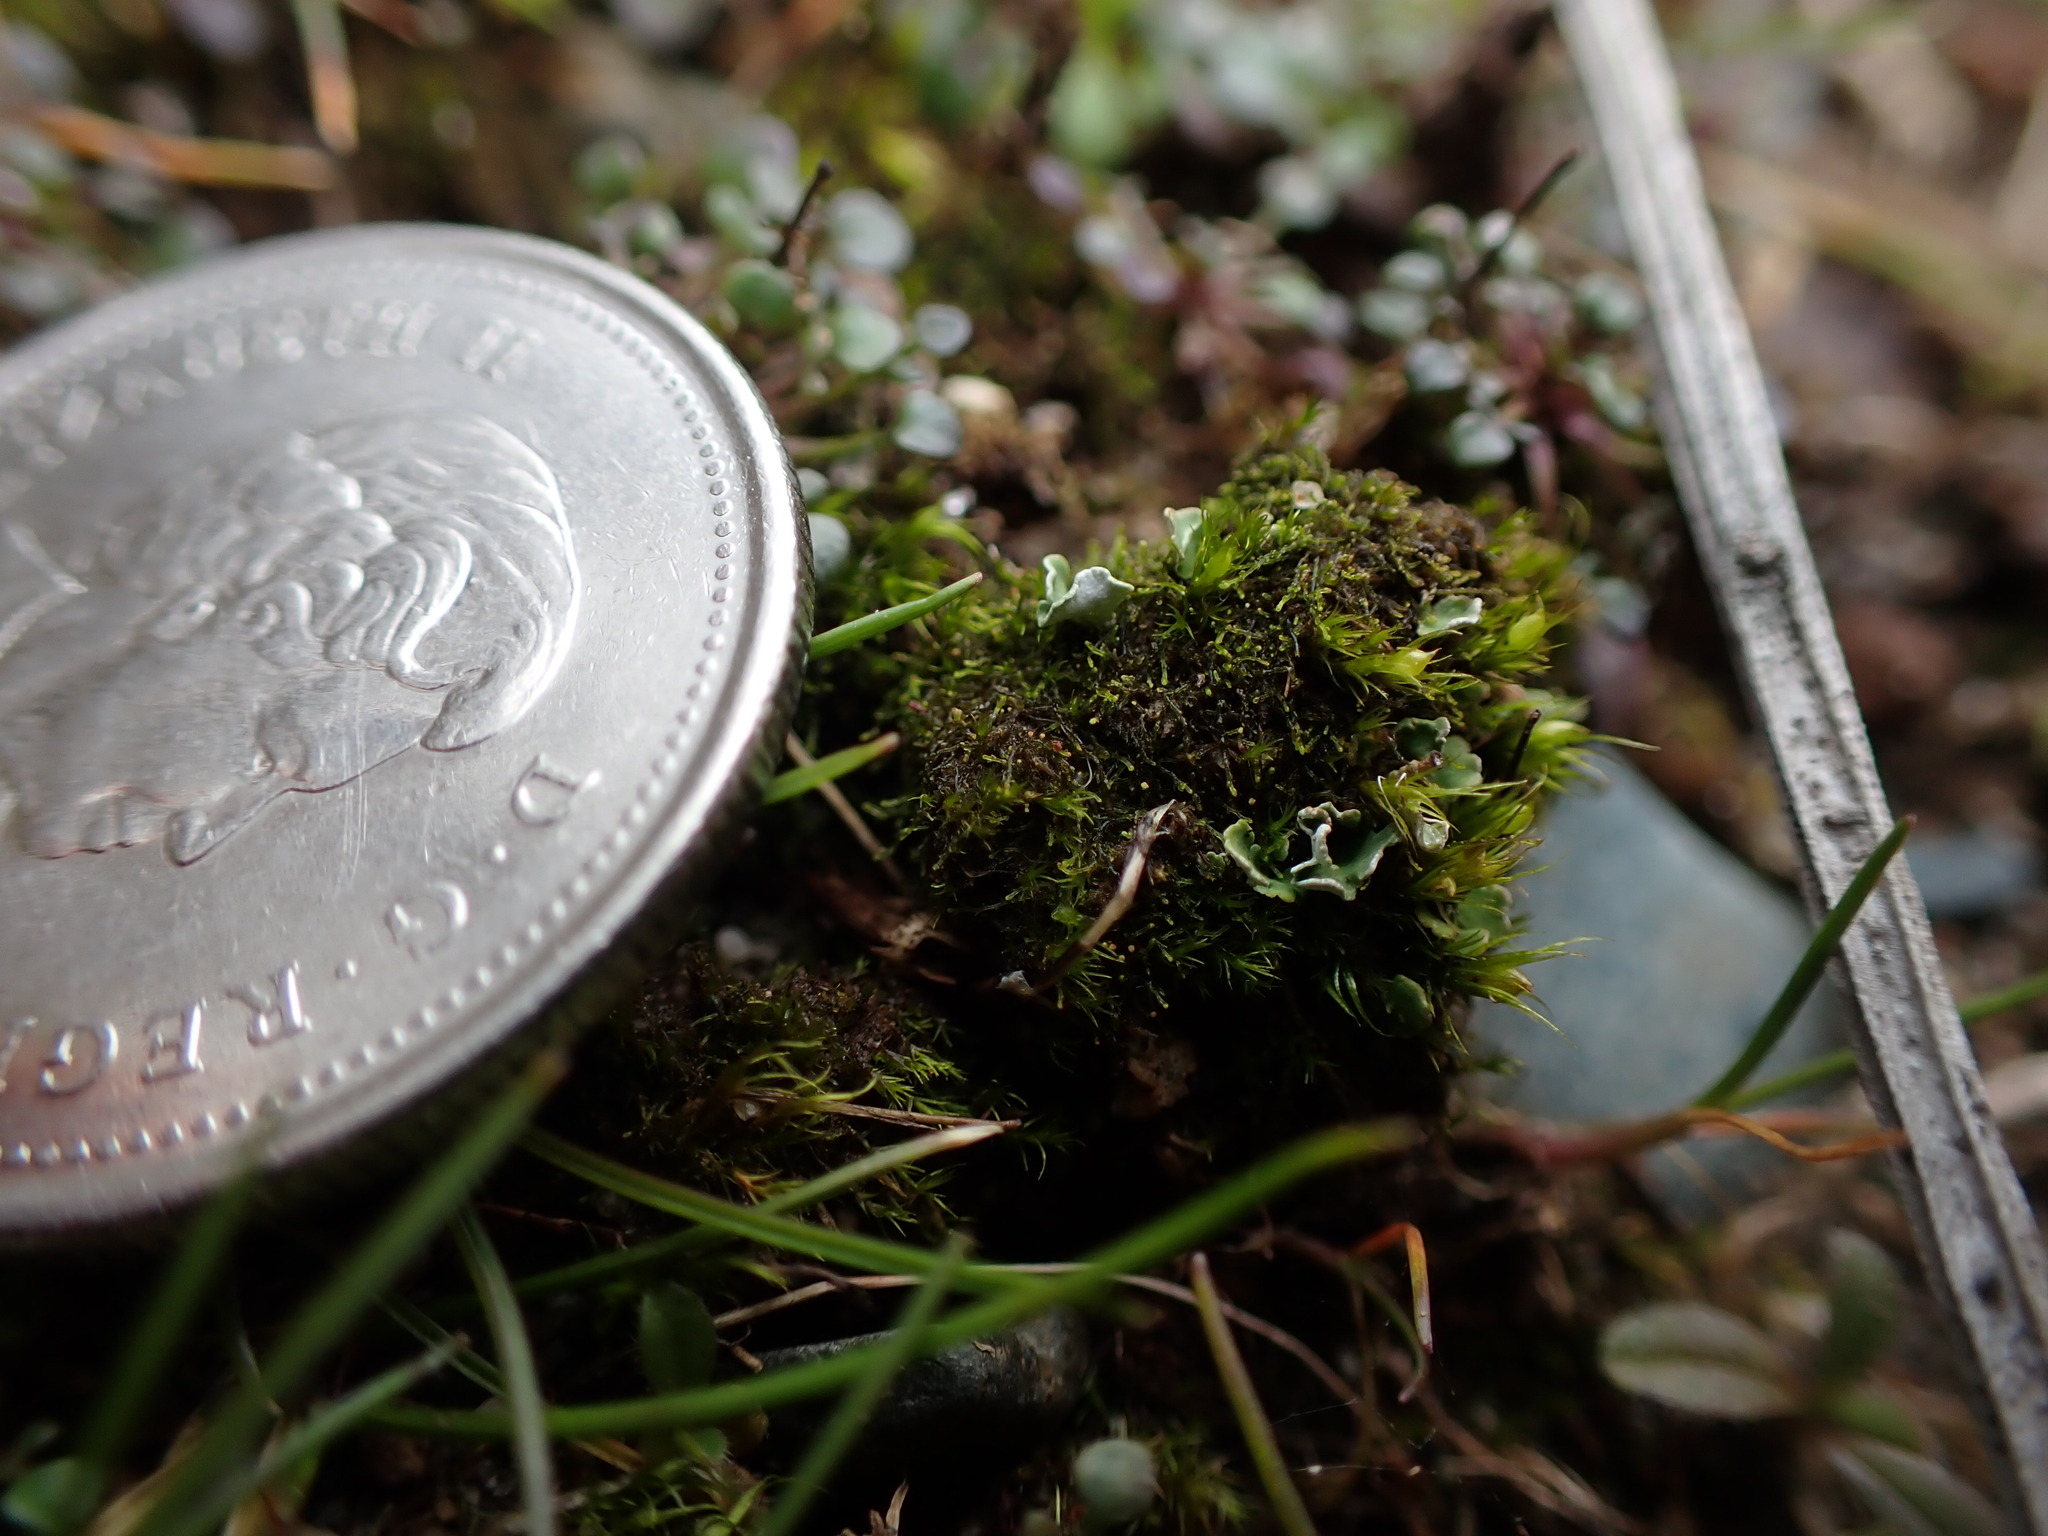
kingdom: Plantae
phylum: Marchantiophyta
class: Jungermanniopsida
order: Jungermanniales
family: Cephaloziellaceae
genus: Cephaloziella
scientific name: Cephaloziella divaricata
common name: Spreading threadwort
